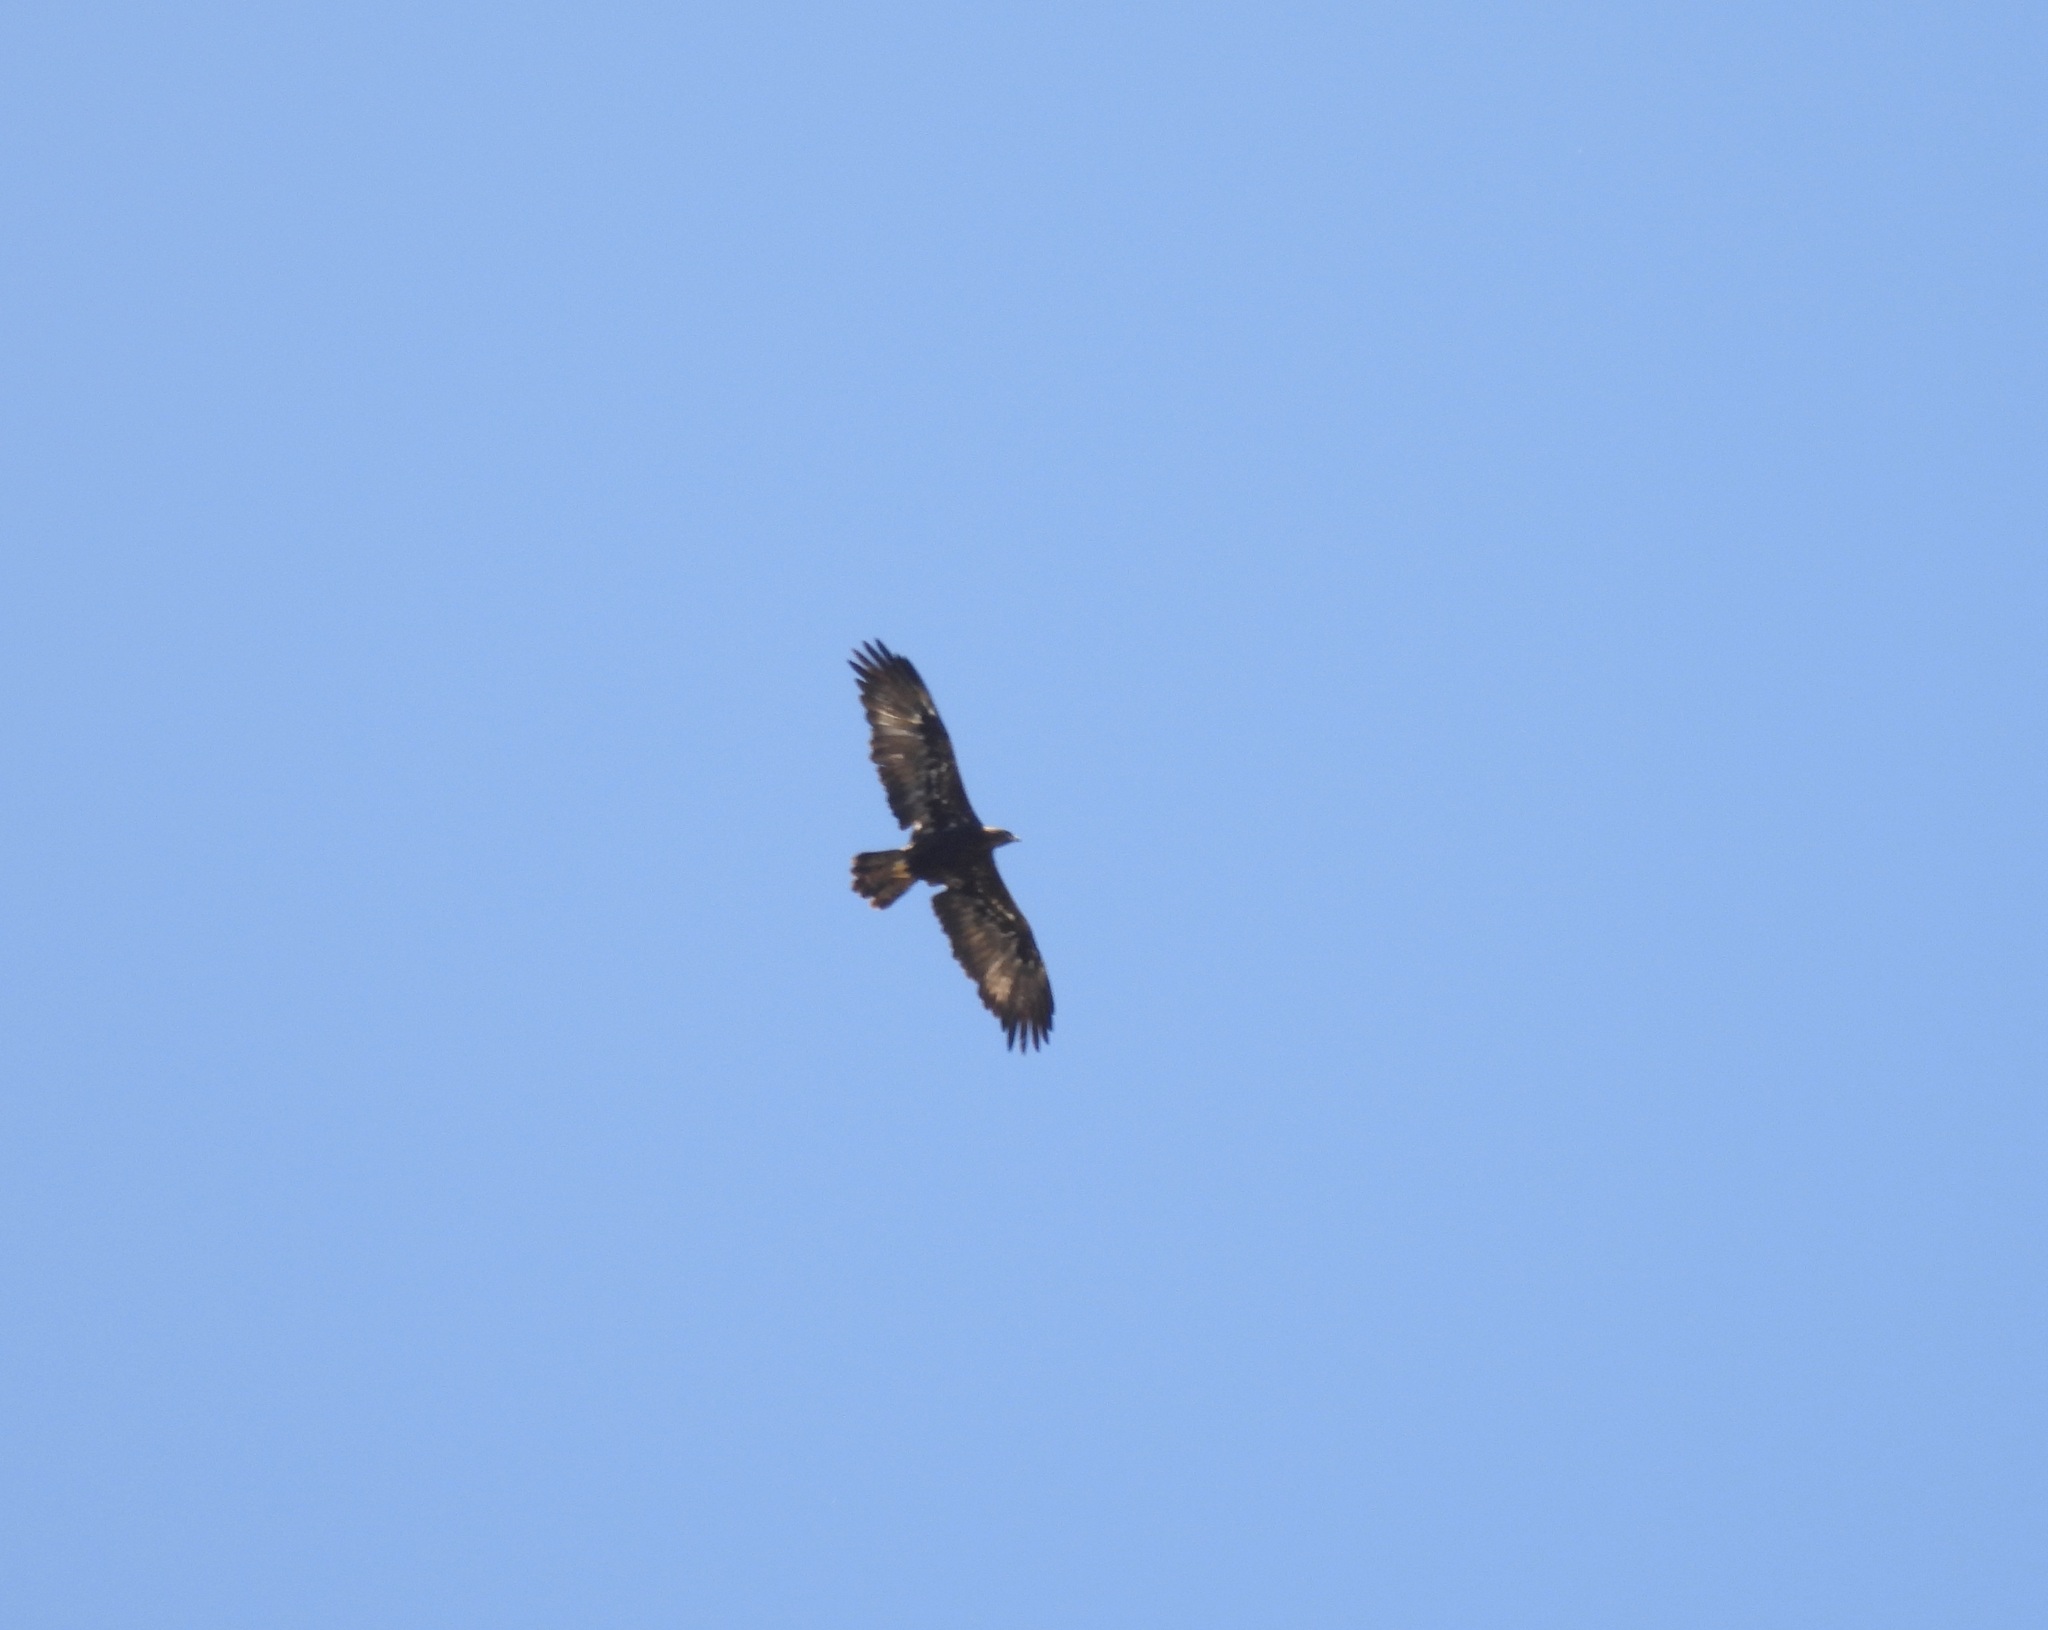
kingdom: Animalia
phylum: Chordata
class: Aves
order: Accipitriformes
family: Accipitridae
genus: Aquila
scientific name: Aquila chrysaetos
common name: Golden eagle
